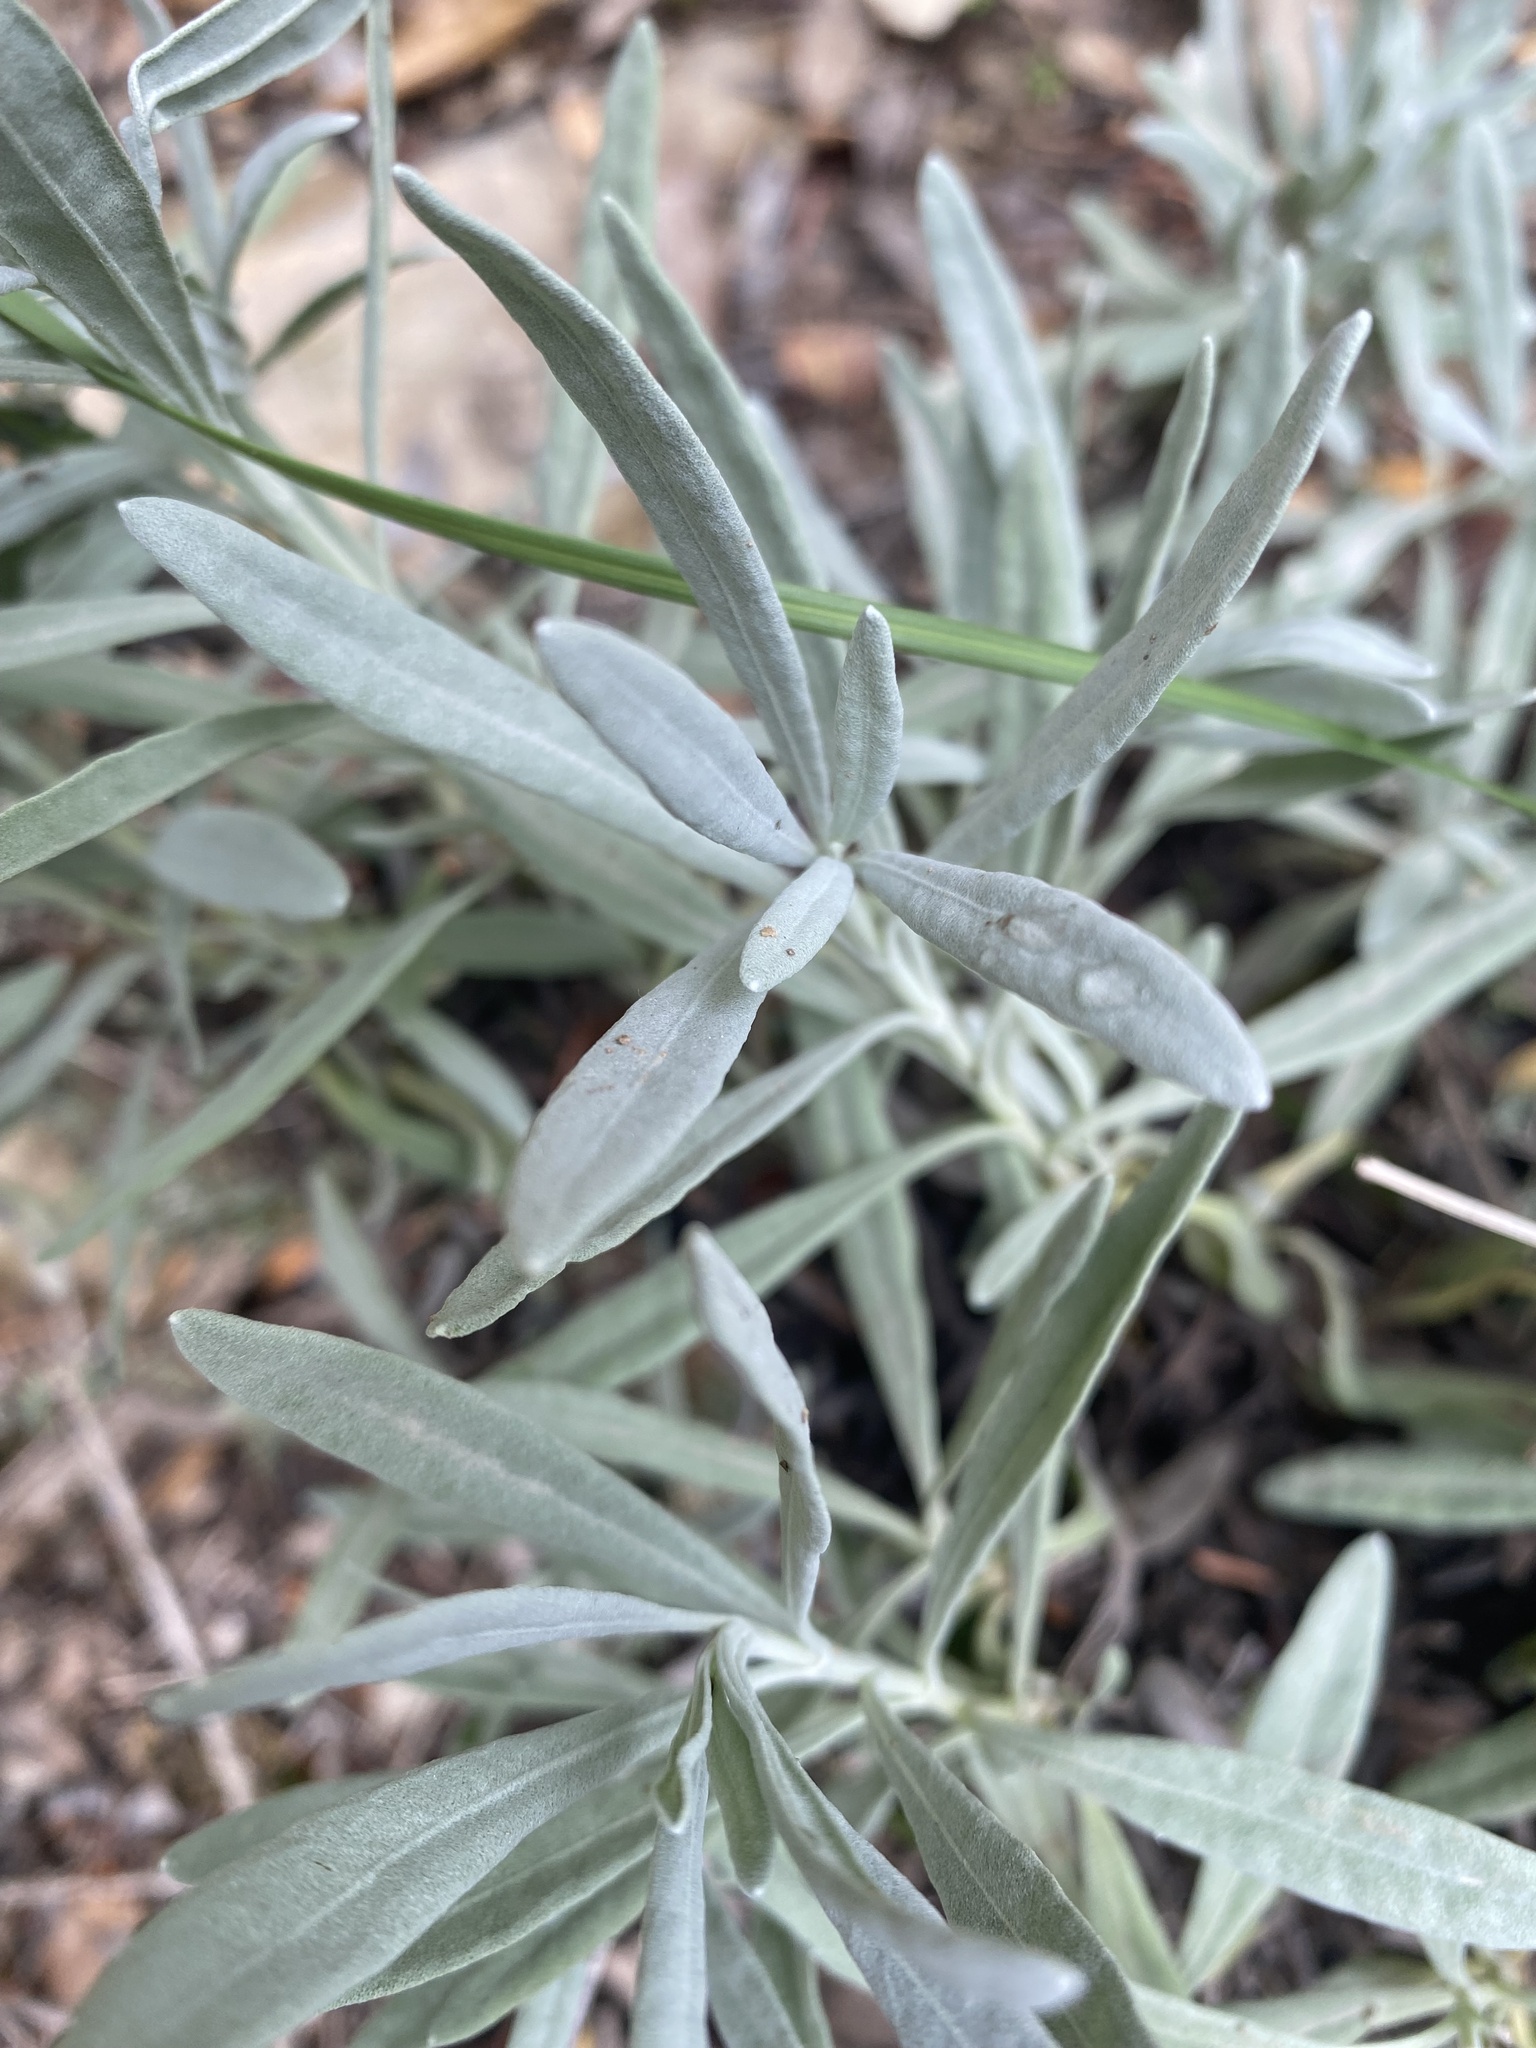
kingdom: Plantae
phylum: Tracheophyta
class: Magnoliopsida
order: Lamiales
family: Lamiaceae
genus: Lavandula
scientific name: Lavandula latifolia
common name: Spike lavendar
